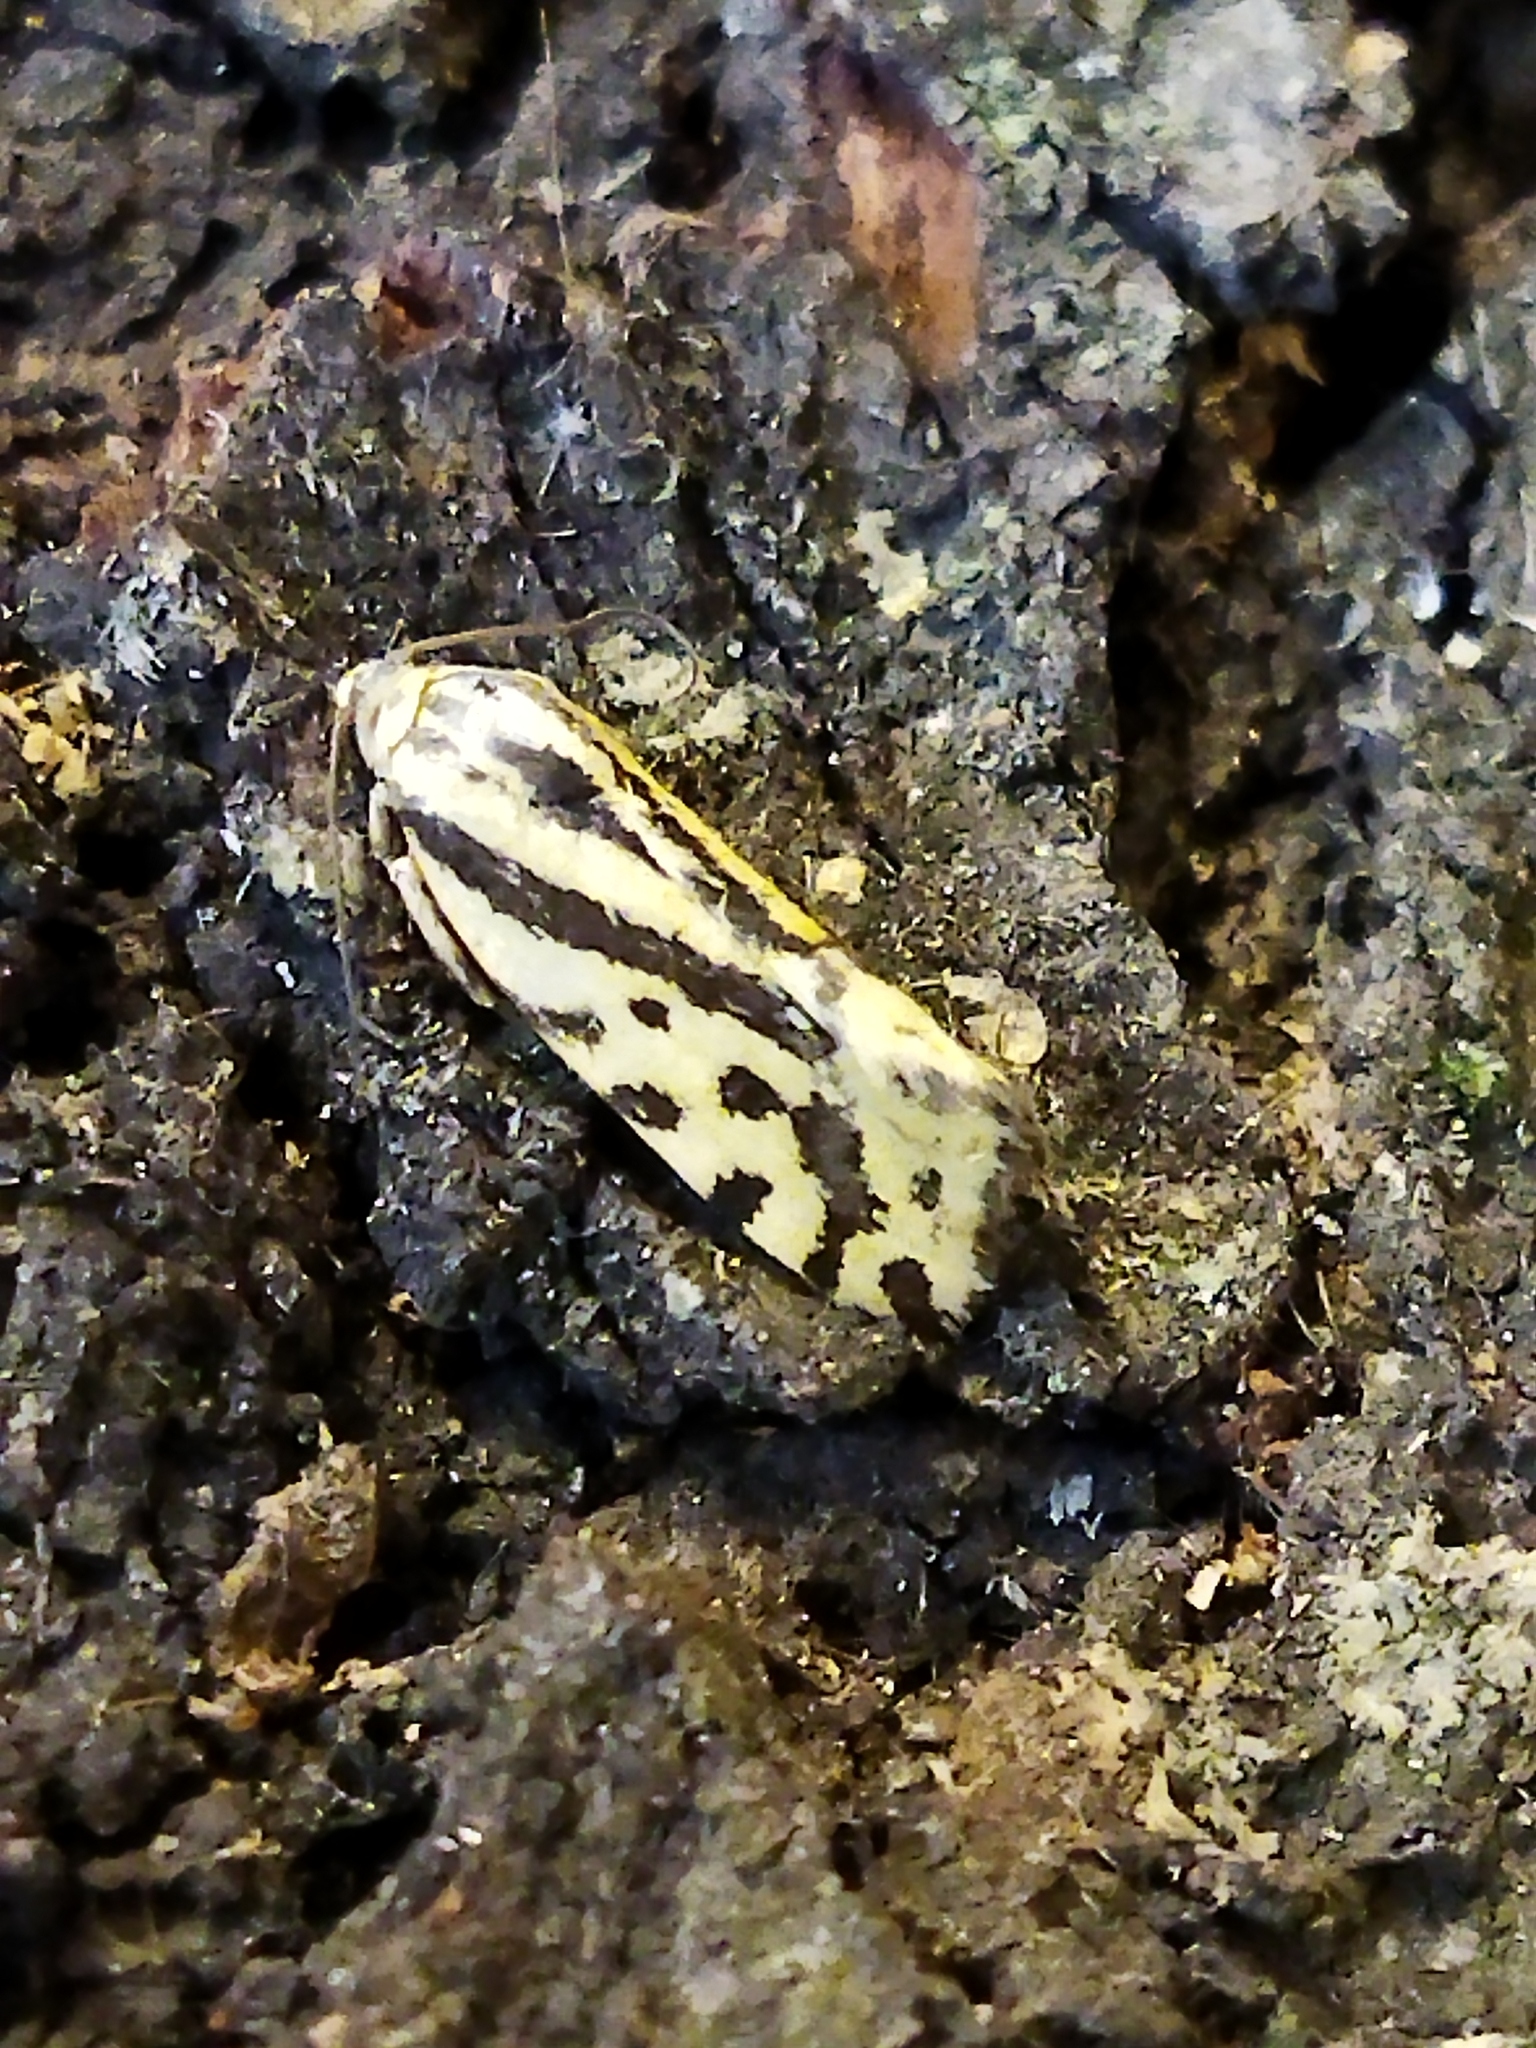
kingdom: Animalia
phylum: Arthropoda
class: Insecta
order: Lepidoptera
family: Noctuidae
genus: Acontia
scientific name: Acontia trabealis
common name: Spotted sulphur
